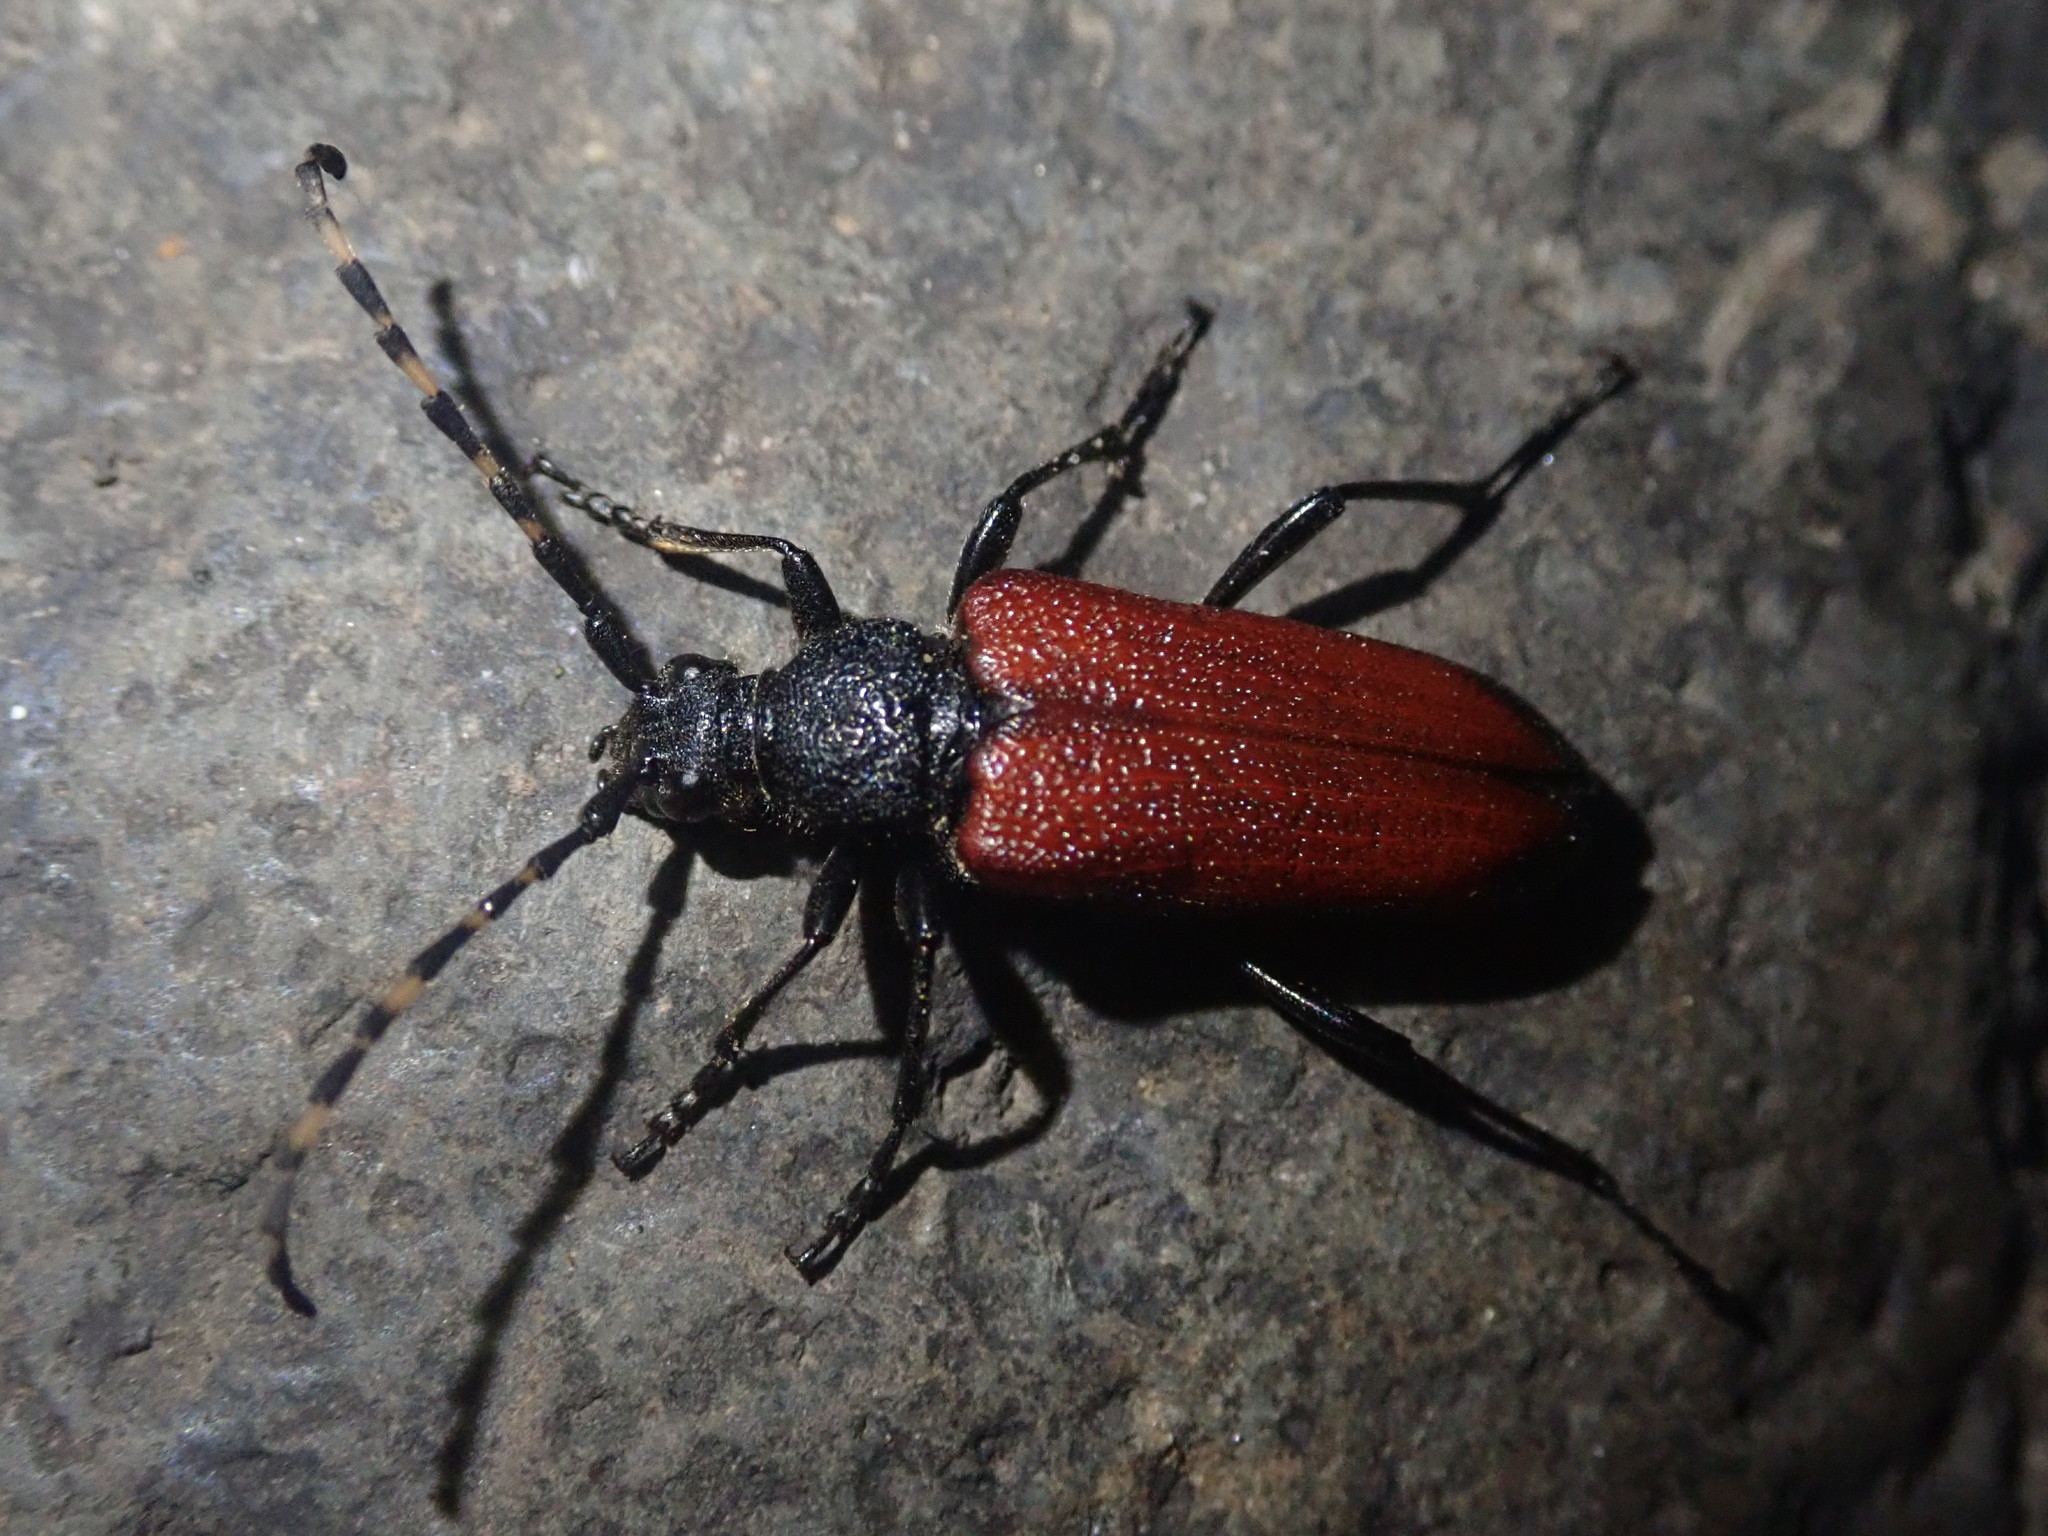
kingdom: Animalia
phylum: Arthropoda
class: Insecta
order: Coleoptera
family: Cerambycidae
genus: Stictoleptura
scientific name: Stictoleptura canadensis
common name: Red-shouldered pine borer
